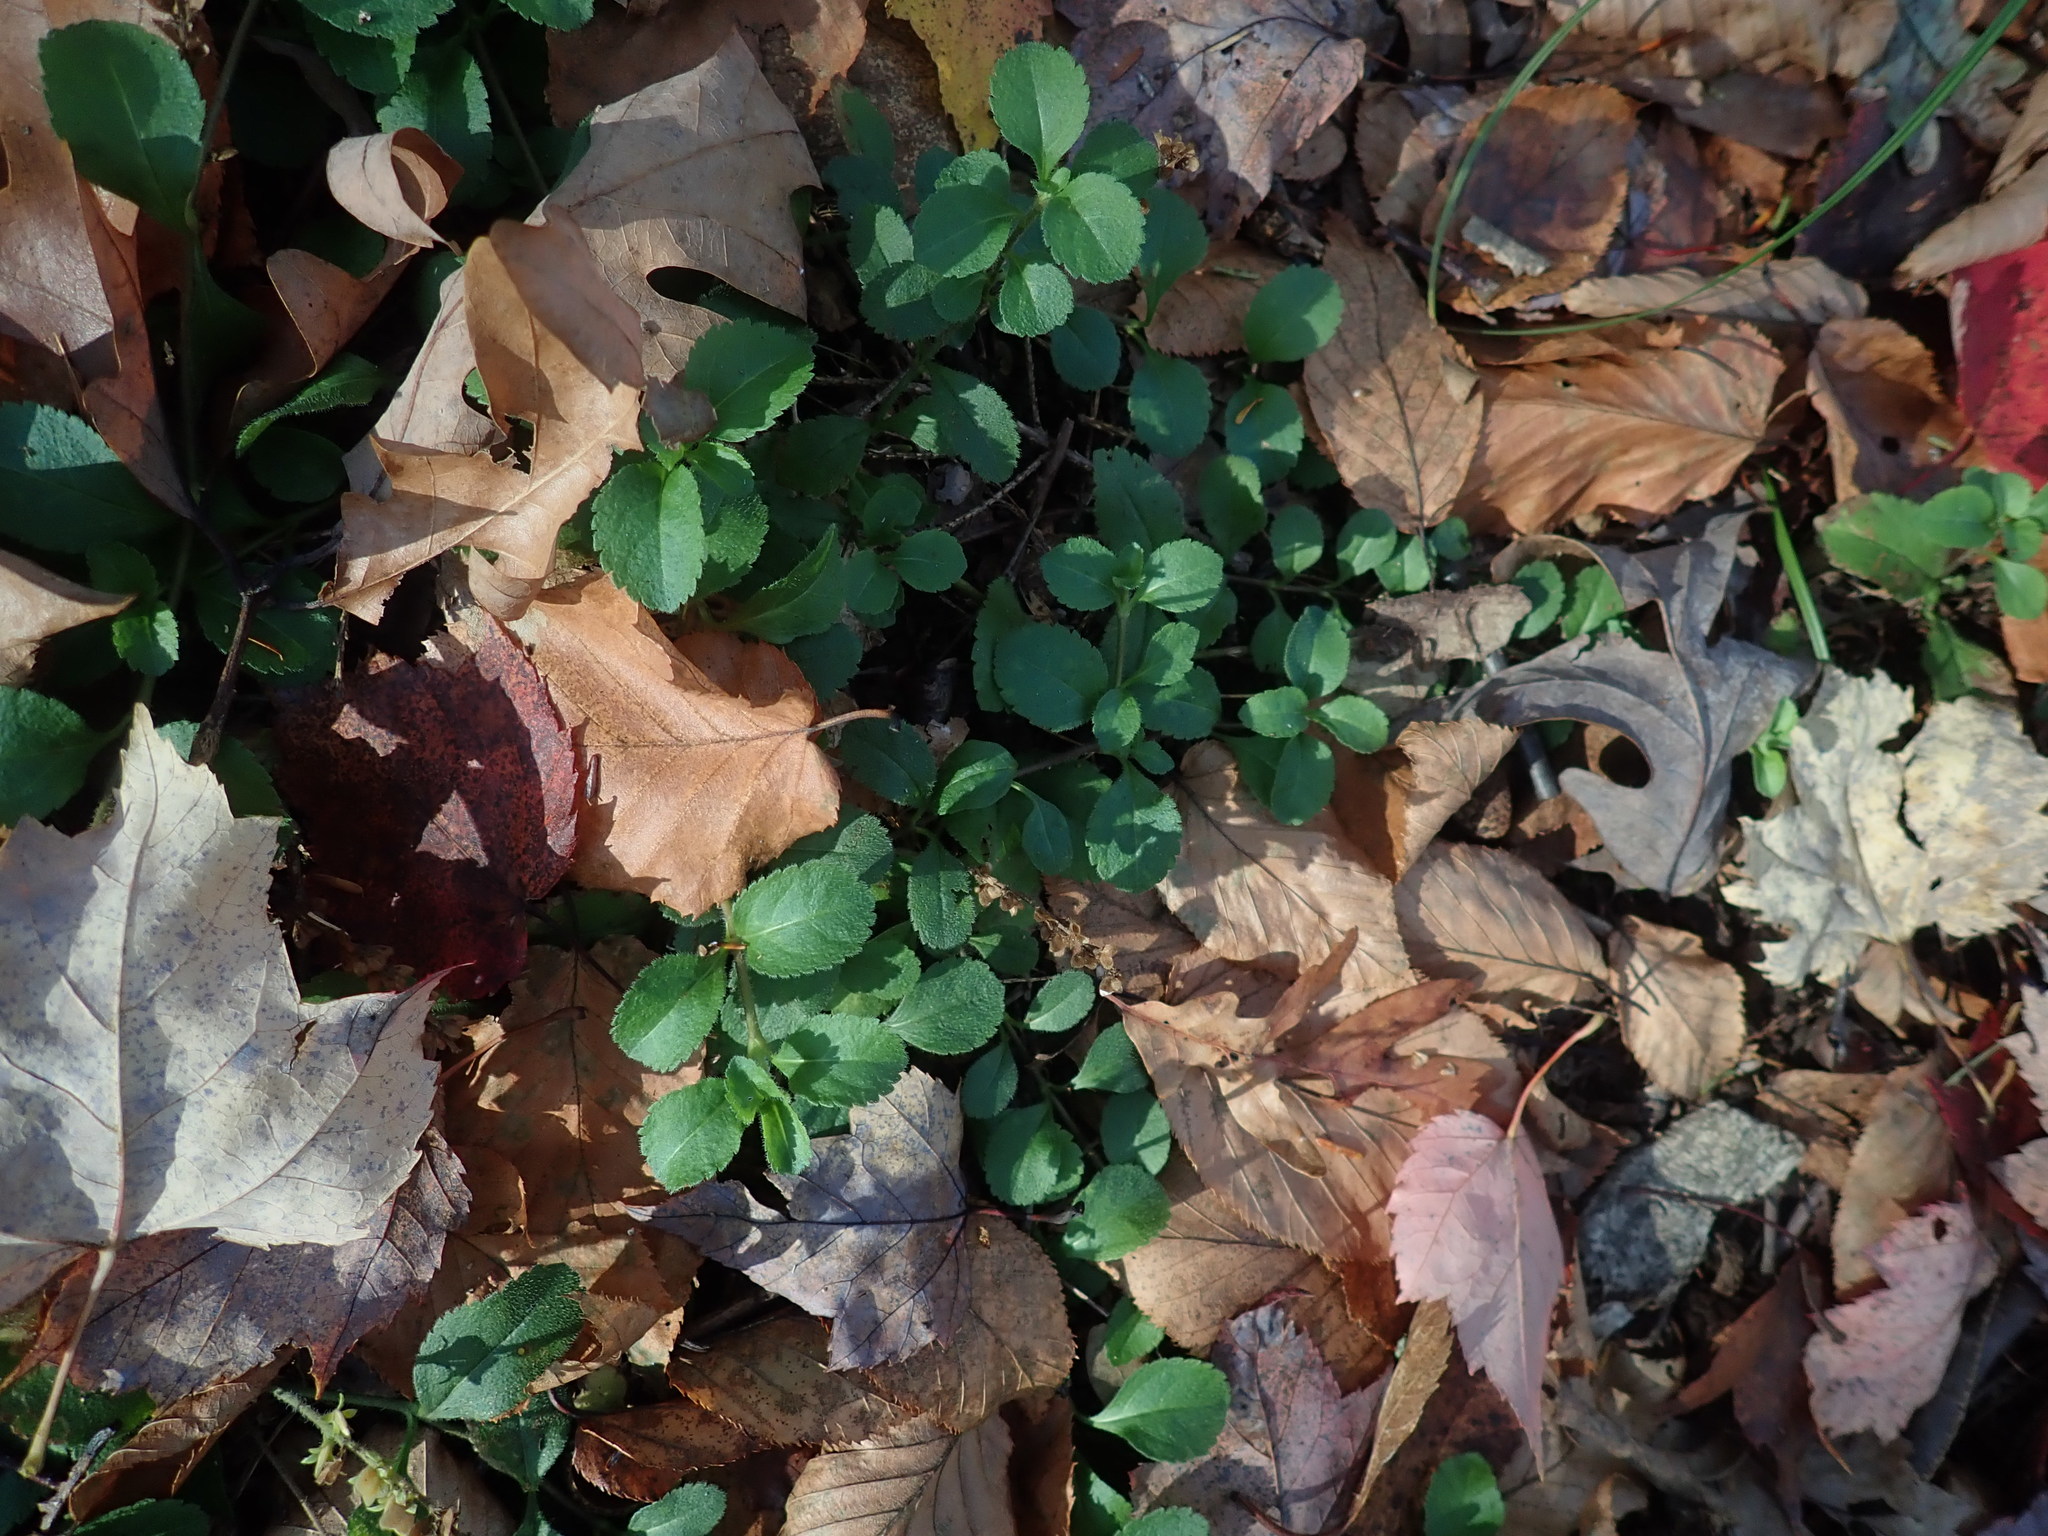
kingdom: Plantae
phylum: Tracheophyta
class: Magnoliopsida
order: Lamiales
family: Plantaginaceae
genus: Veronica
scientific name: Veronica officinalis
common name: Common speedwell
